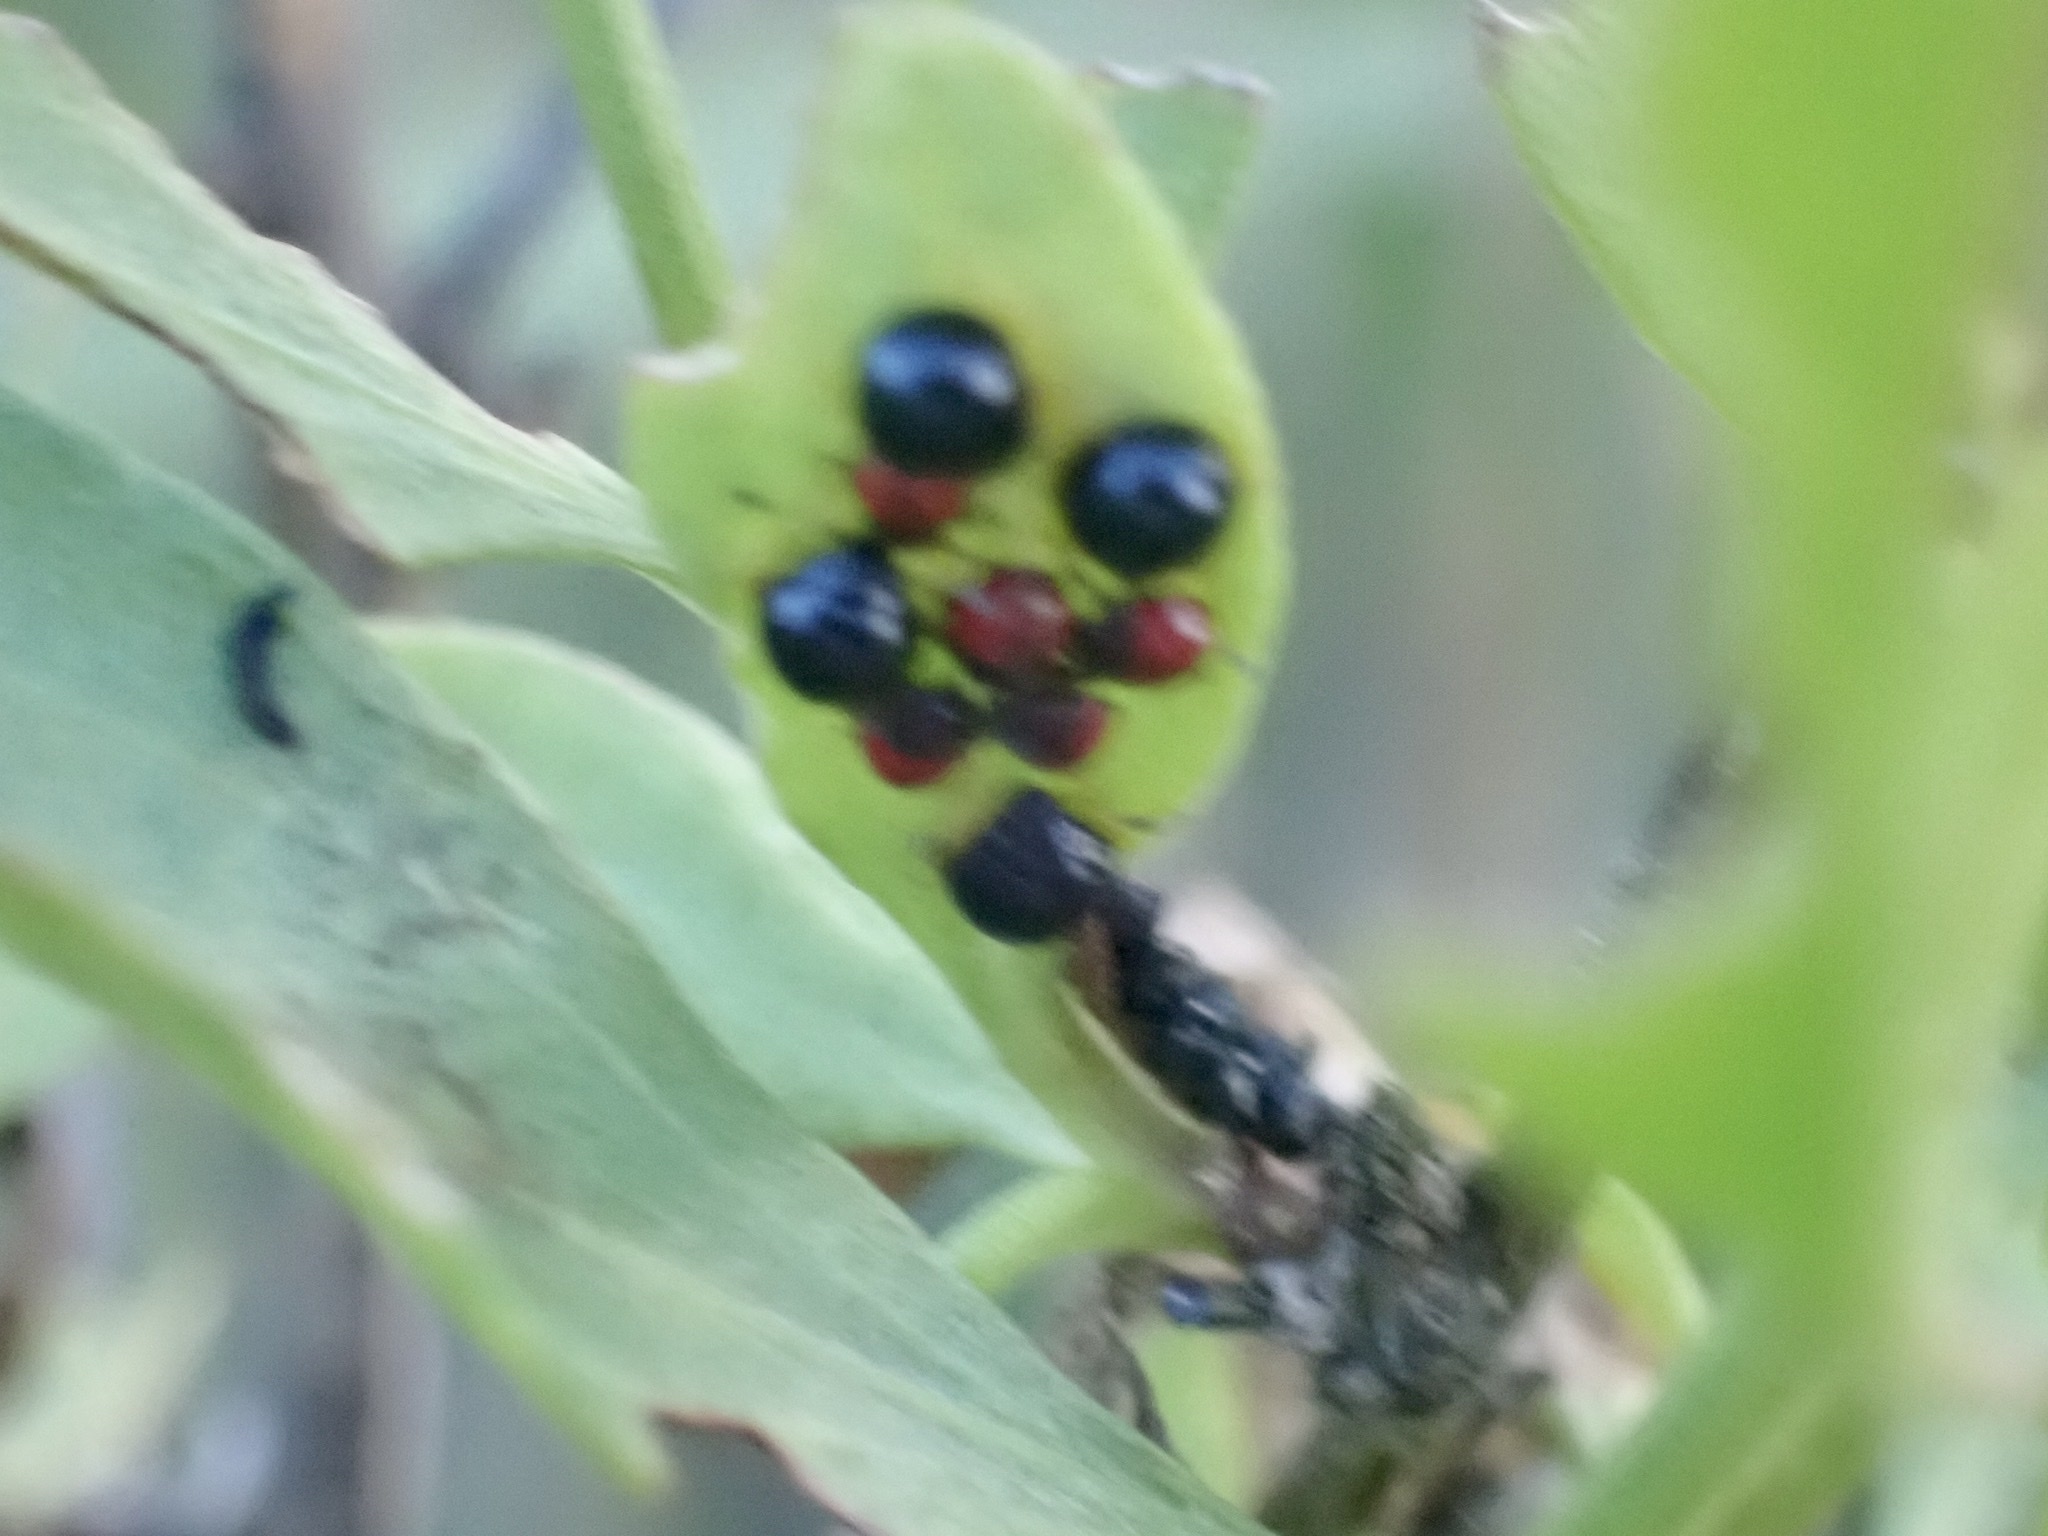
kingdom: Animalia
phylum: Arthropoda
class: Insecta
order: Hemiptera
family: Pentatomidae
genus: Stiretrus
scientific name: Stiretrus anchorago
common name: Anchor stink bug
